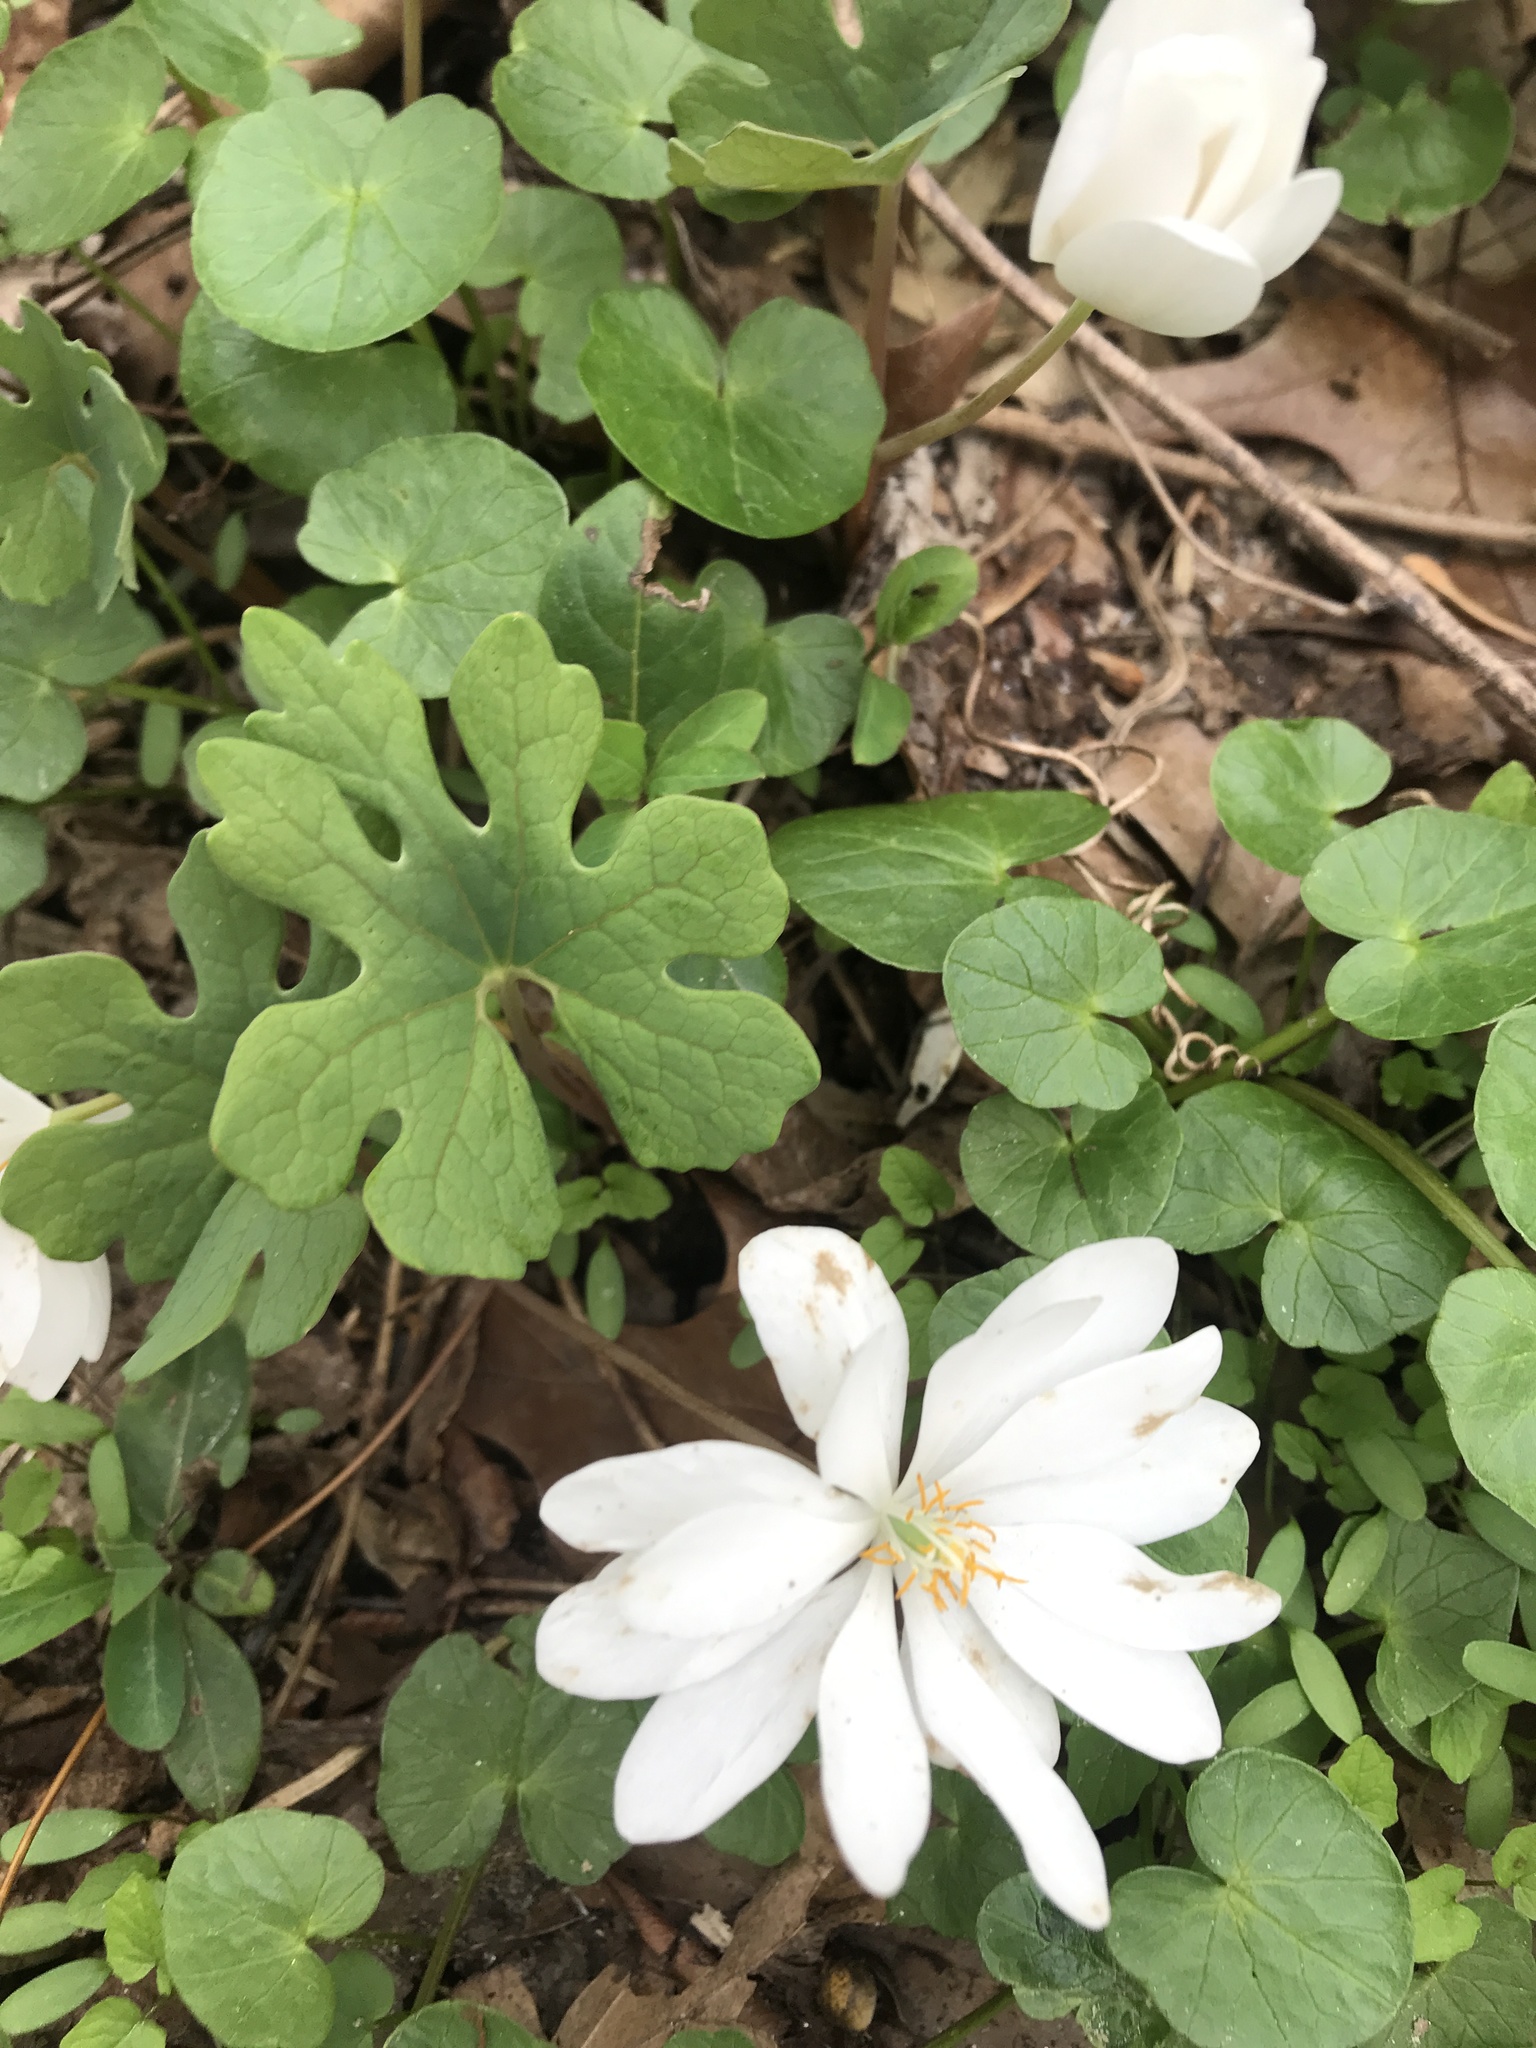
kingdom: Plantae
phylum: Tracheophyta
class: Magnoliopsida
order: Ranunculales
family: Papaveraceae
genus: Sanguinaria
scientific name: Sanguinaria canadensis
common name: Bloodroot
